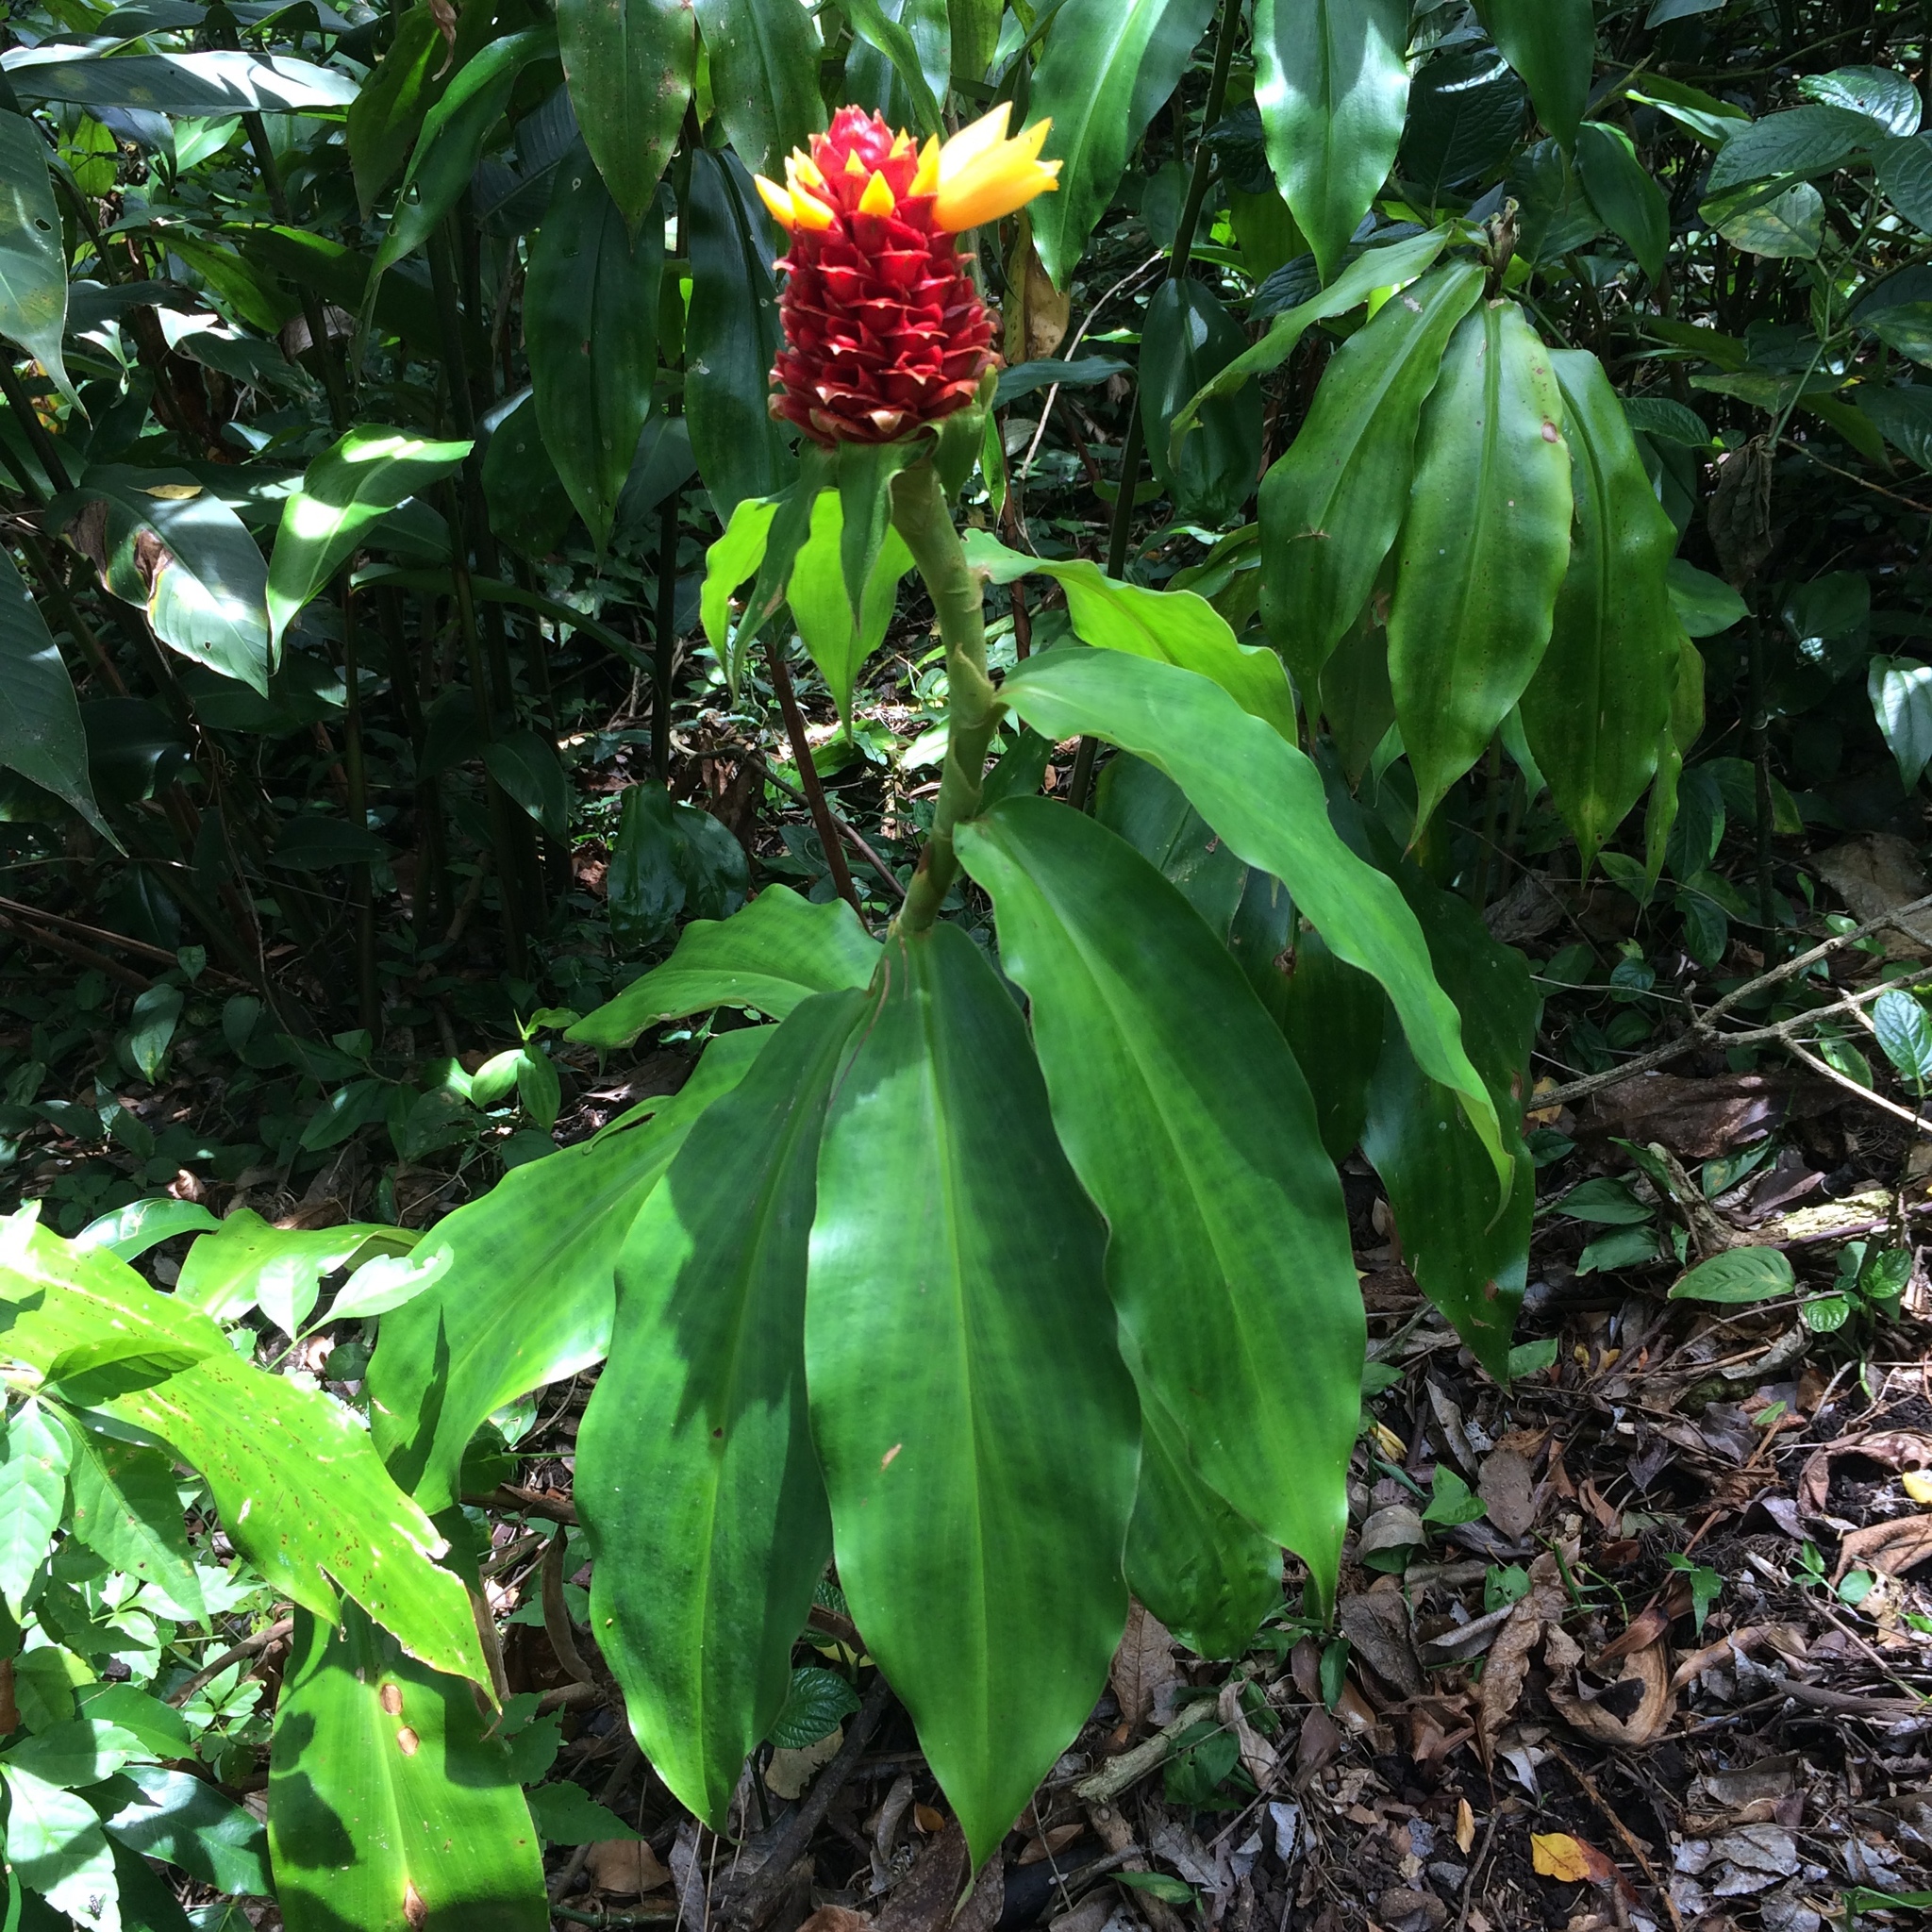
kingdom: Plantae
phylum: Tracheophyta
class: Liliopsida
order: Zingiberales
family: Costaceae
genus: Costus
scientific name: Costus montanus
